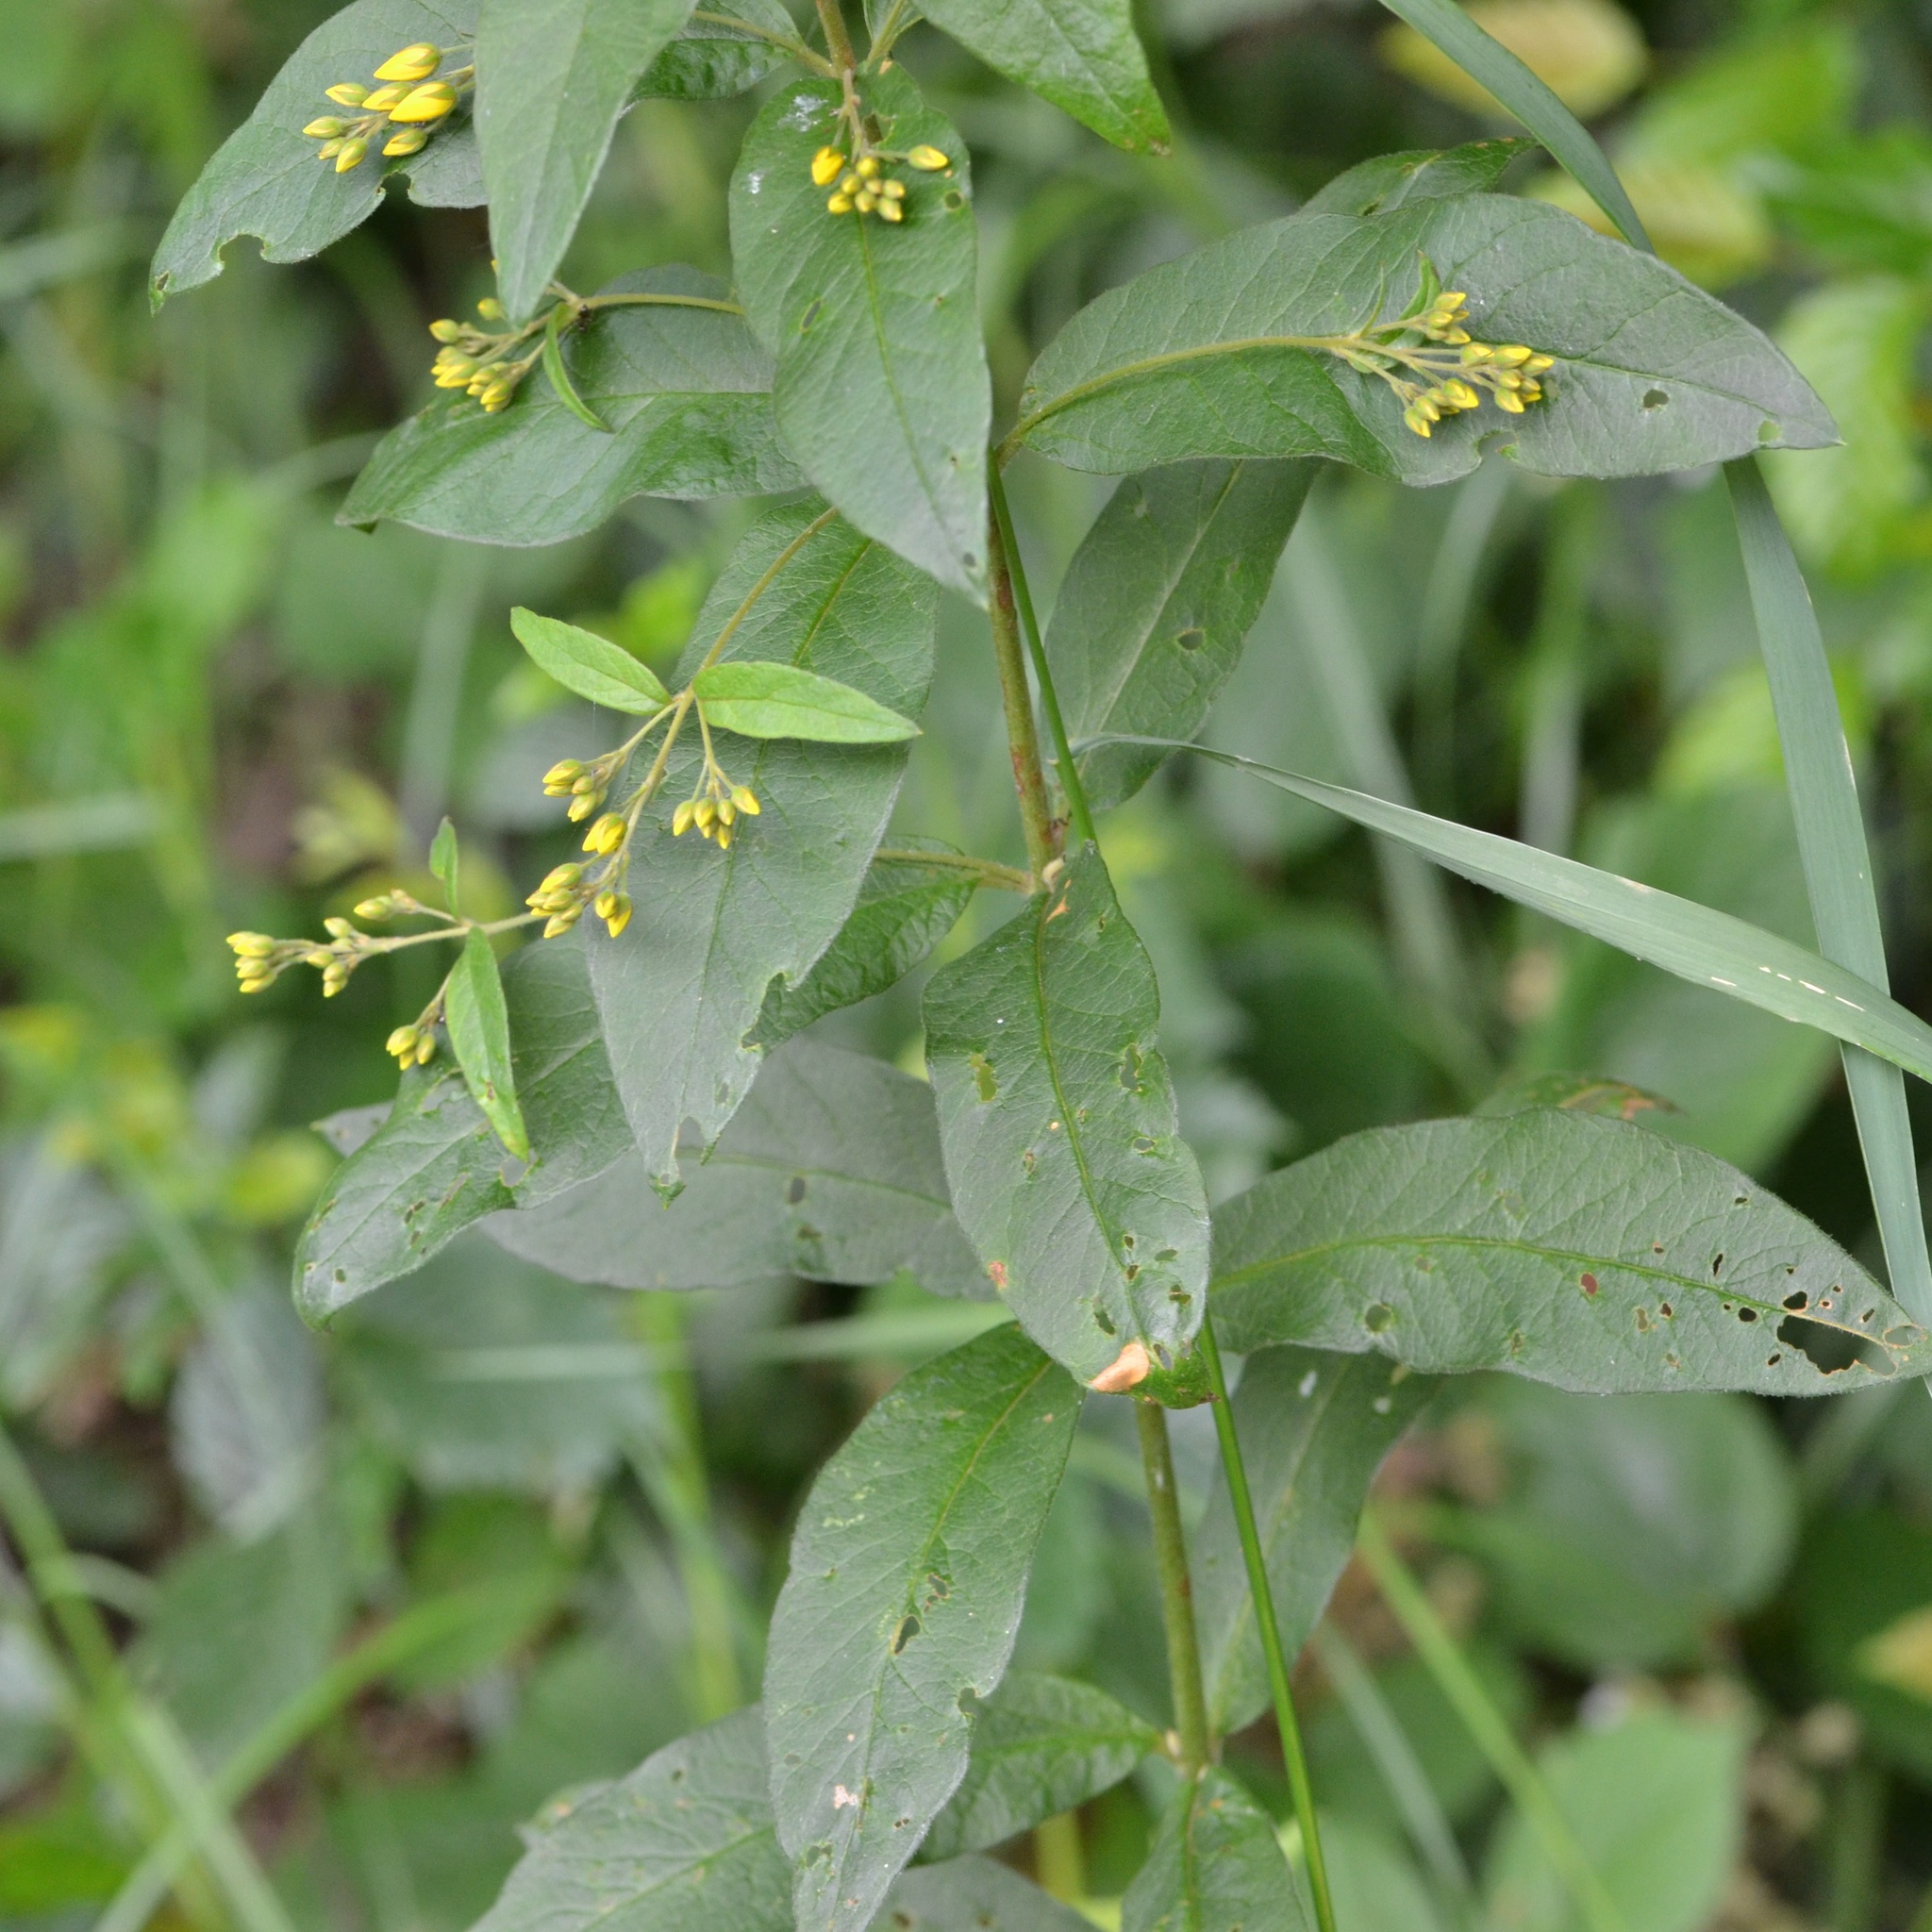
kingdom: Plantae
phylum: Tracheophyta
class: Magnoliopsida
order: Ericales
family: Primulaceae
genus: Lysimachia
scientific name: Lysimachia vulgaris
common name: Yellow loosestrife
